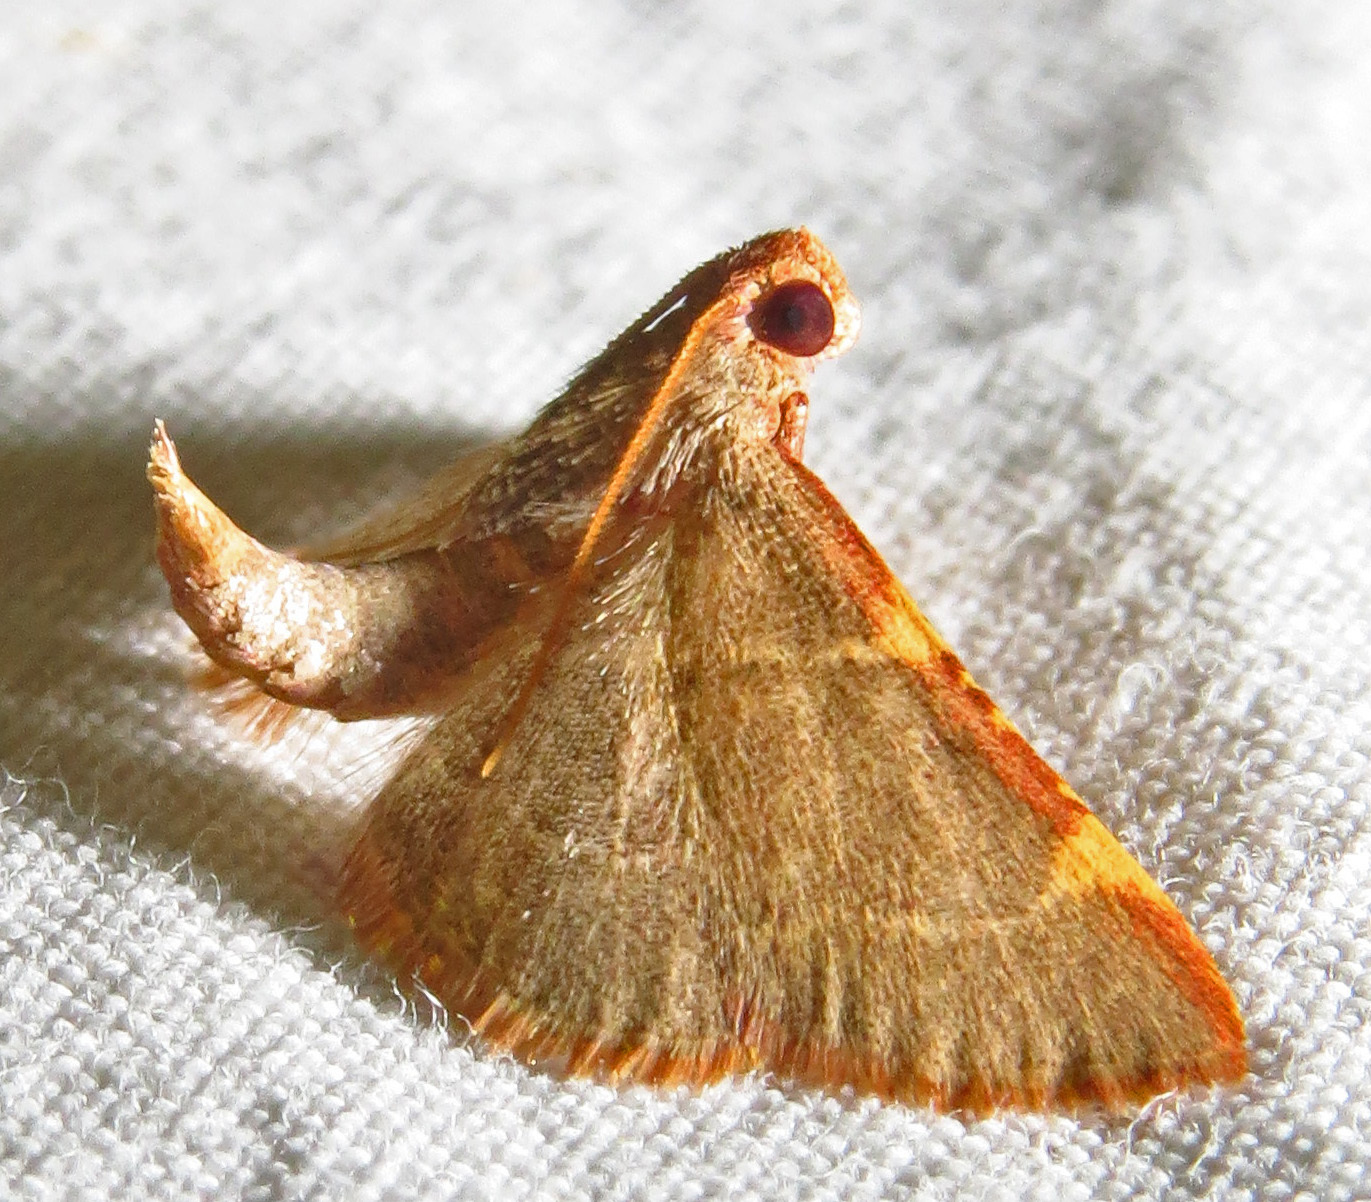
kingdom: Animalia
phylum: Arthropoda
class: Insecta
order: Lepidoptera
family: Pyralidae
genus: Hypsopygia
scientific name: Hypsopygia binodulalis
